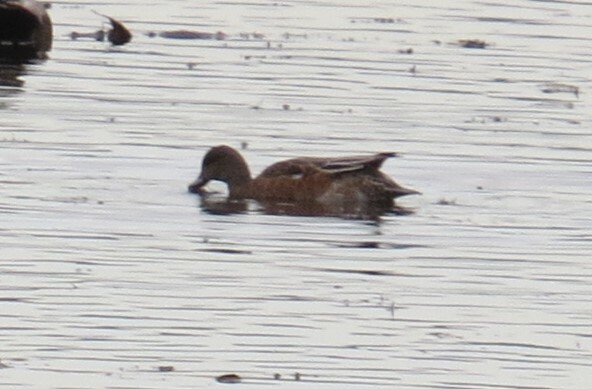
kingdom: Animalia
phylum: Chordata
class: Aves
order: Anseriformes
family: Anatidae
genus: Mareca
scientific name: Mareca americana
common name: American wigeon
